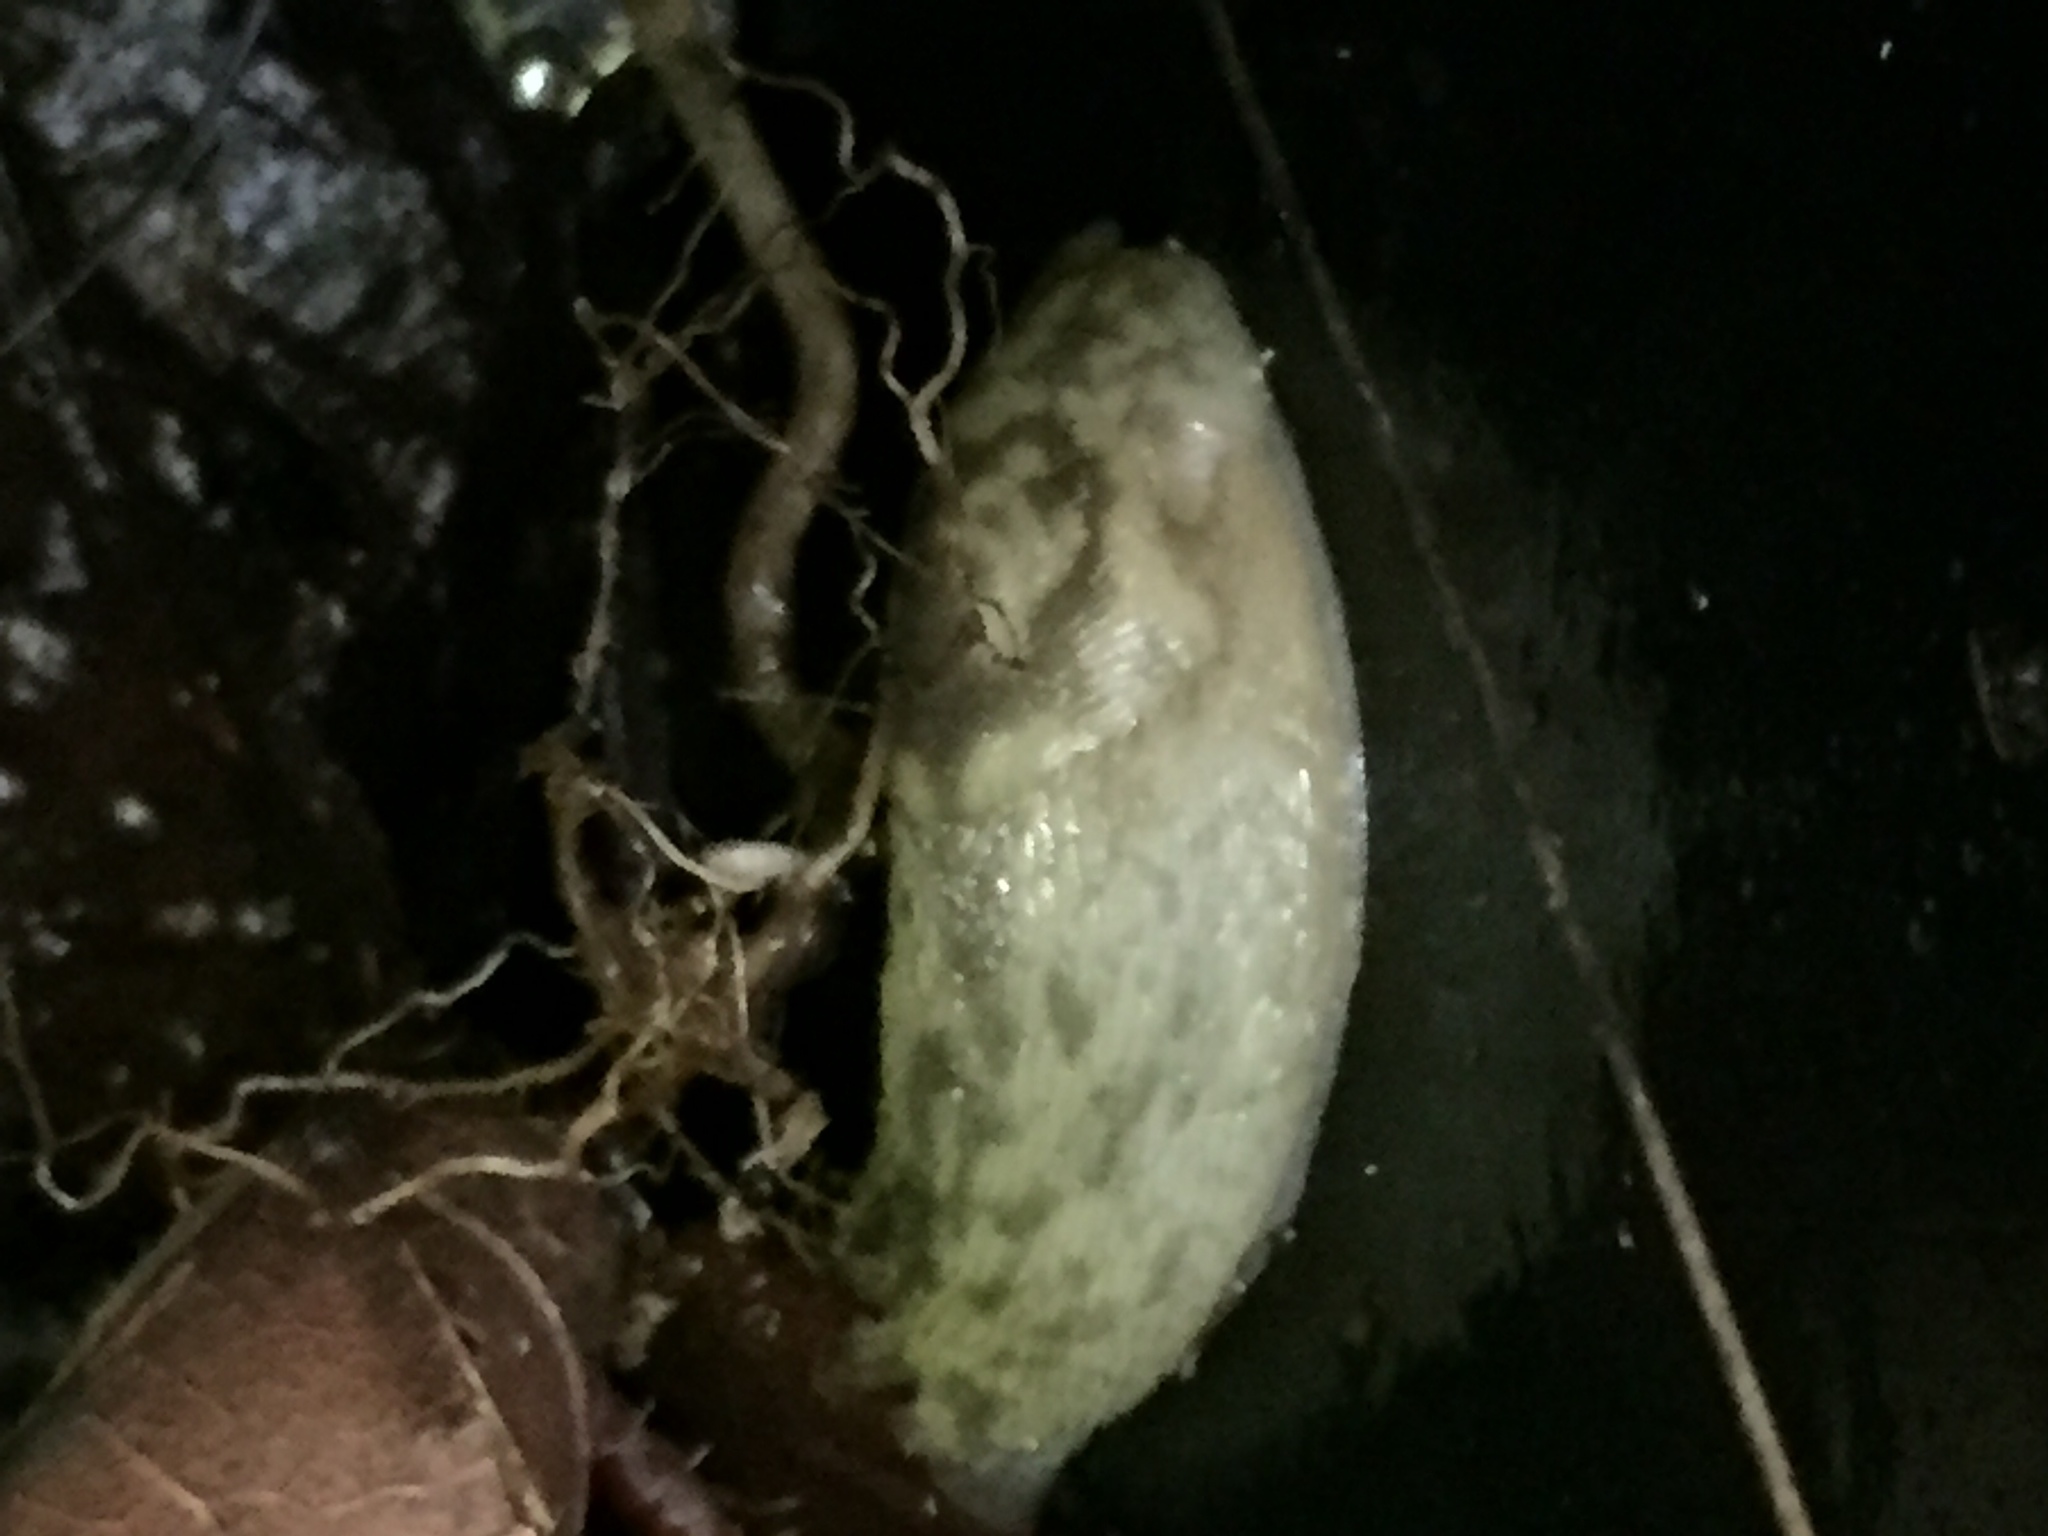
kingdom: Animalia
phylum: Mollusca
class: Gastropoda
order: Stylommatophora
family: Limacidae
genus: Limacus
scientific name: Limacus maculatus
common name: Irish yellow slug
